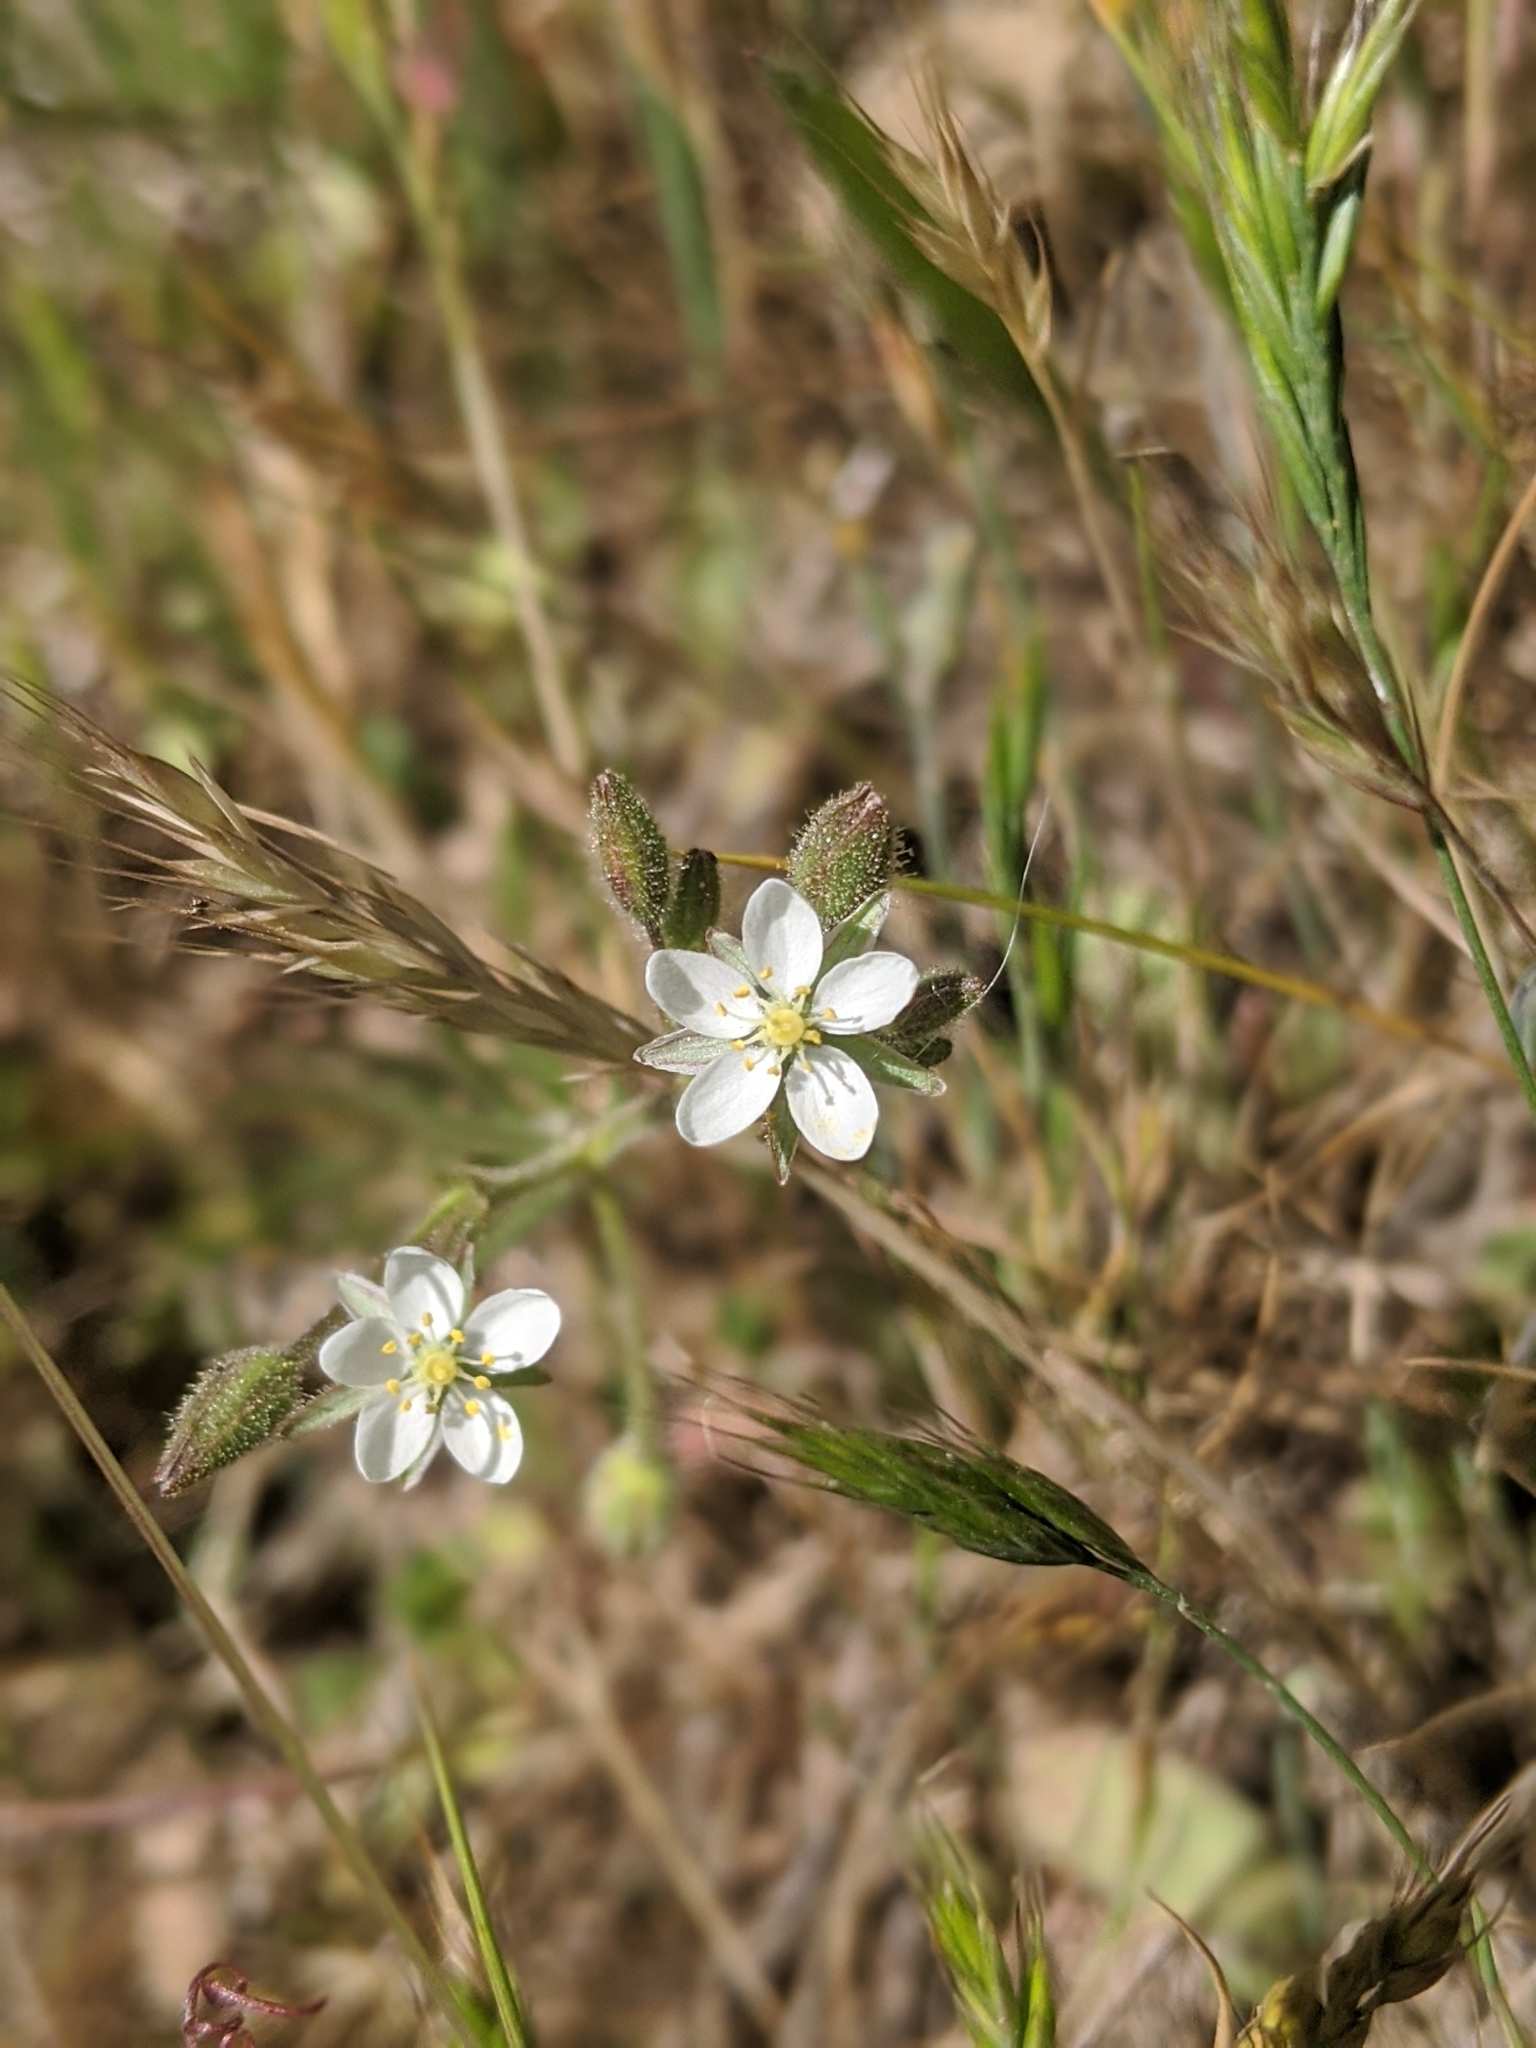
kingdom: Plantae
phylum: Tracheophyta
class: Magnoliopsida
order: Caryophyllales
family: Caryophyllaceae
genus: Spergula
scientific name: Spergula arvensis
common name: Corn spurrey
